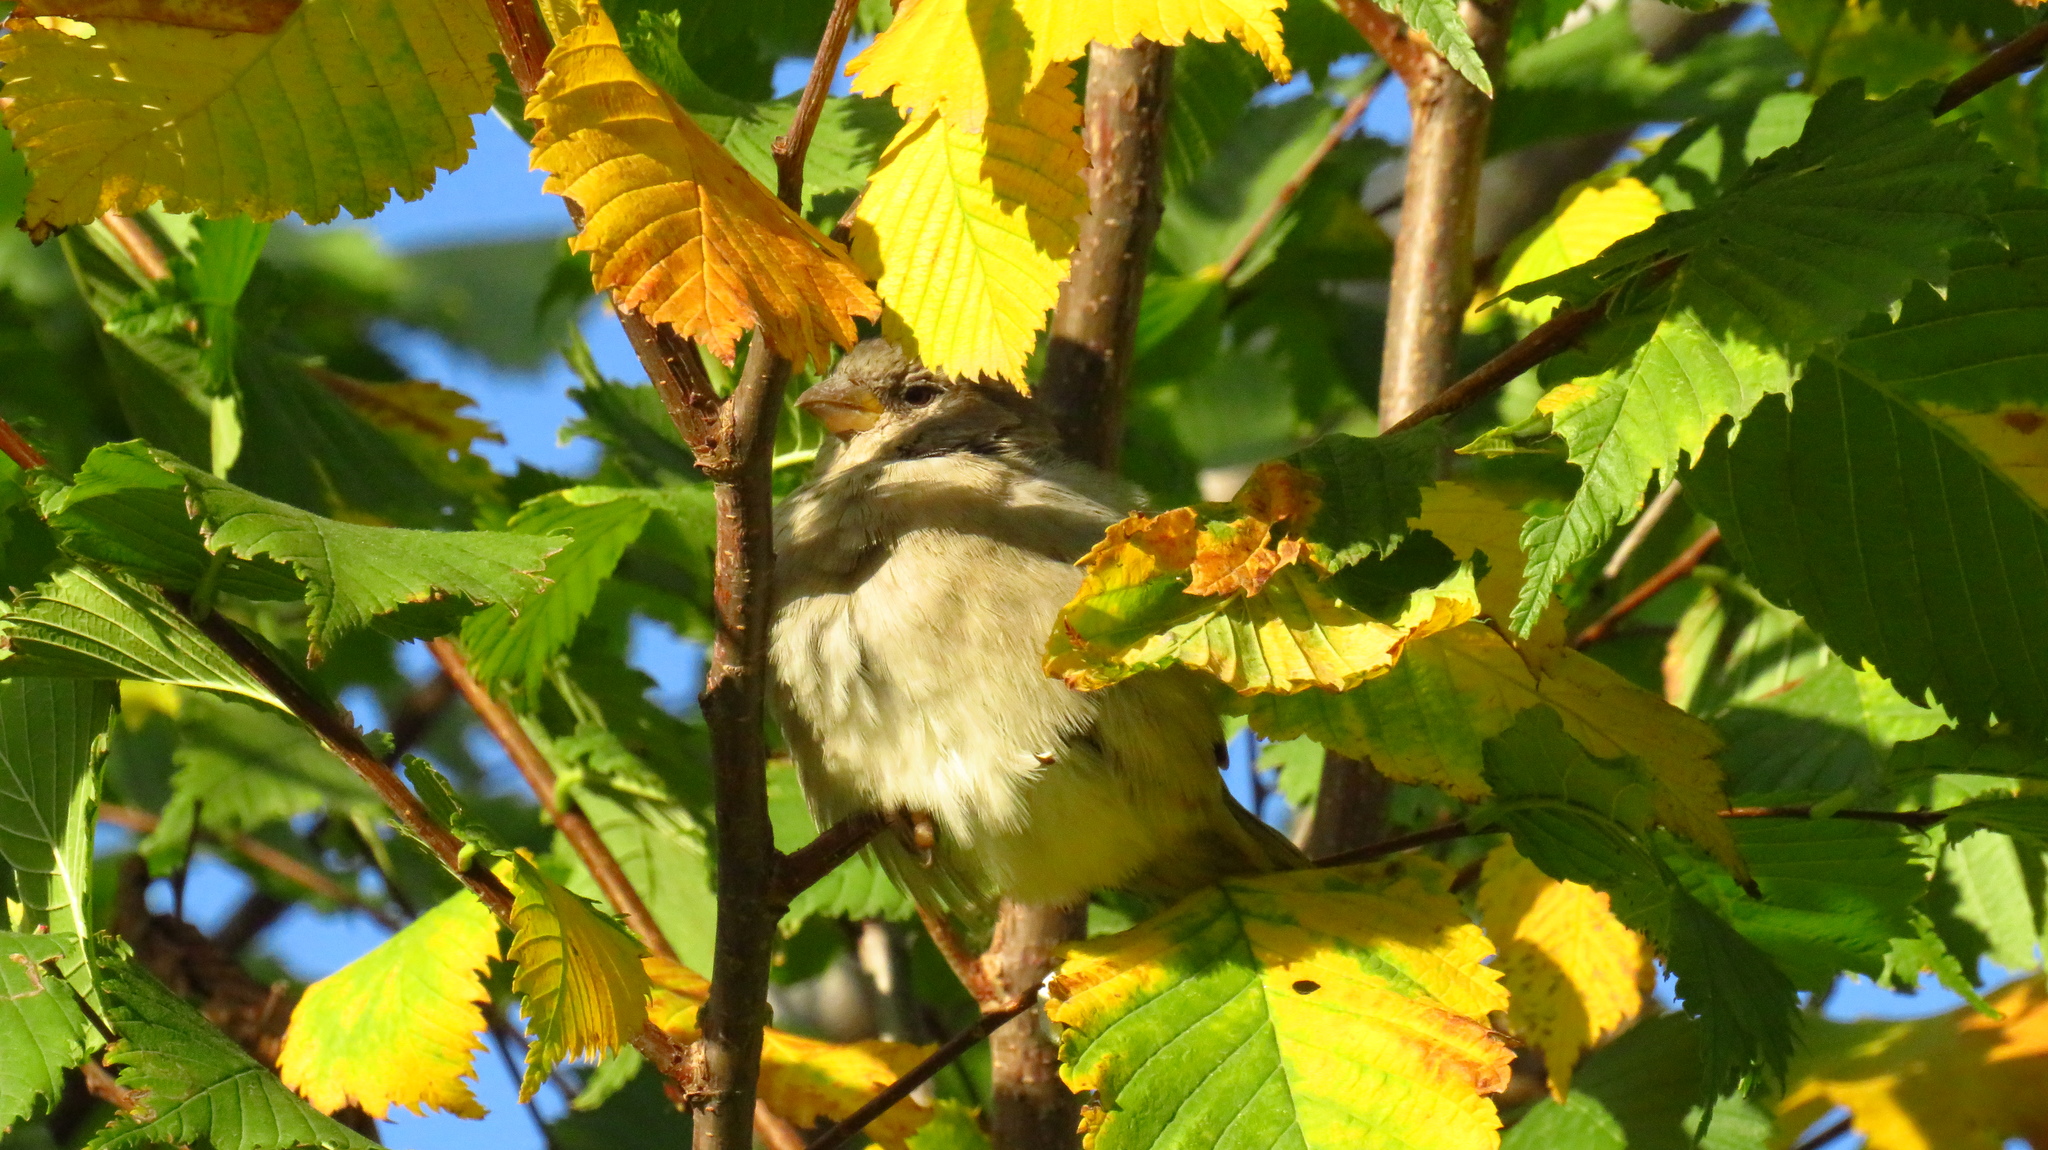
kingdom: Animalia
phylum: Chordata
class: Aves
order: Passeriformes
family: Passeridae
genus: Passer
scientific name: Passer domesticus
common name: House sparrow
